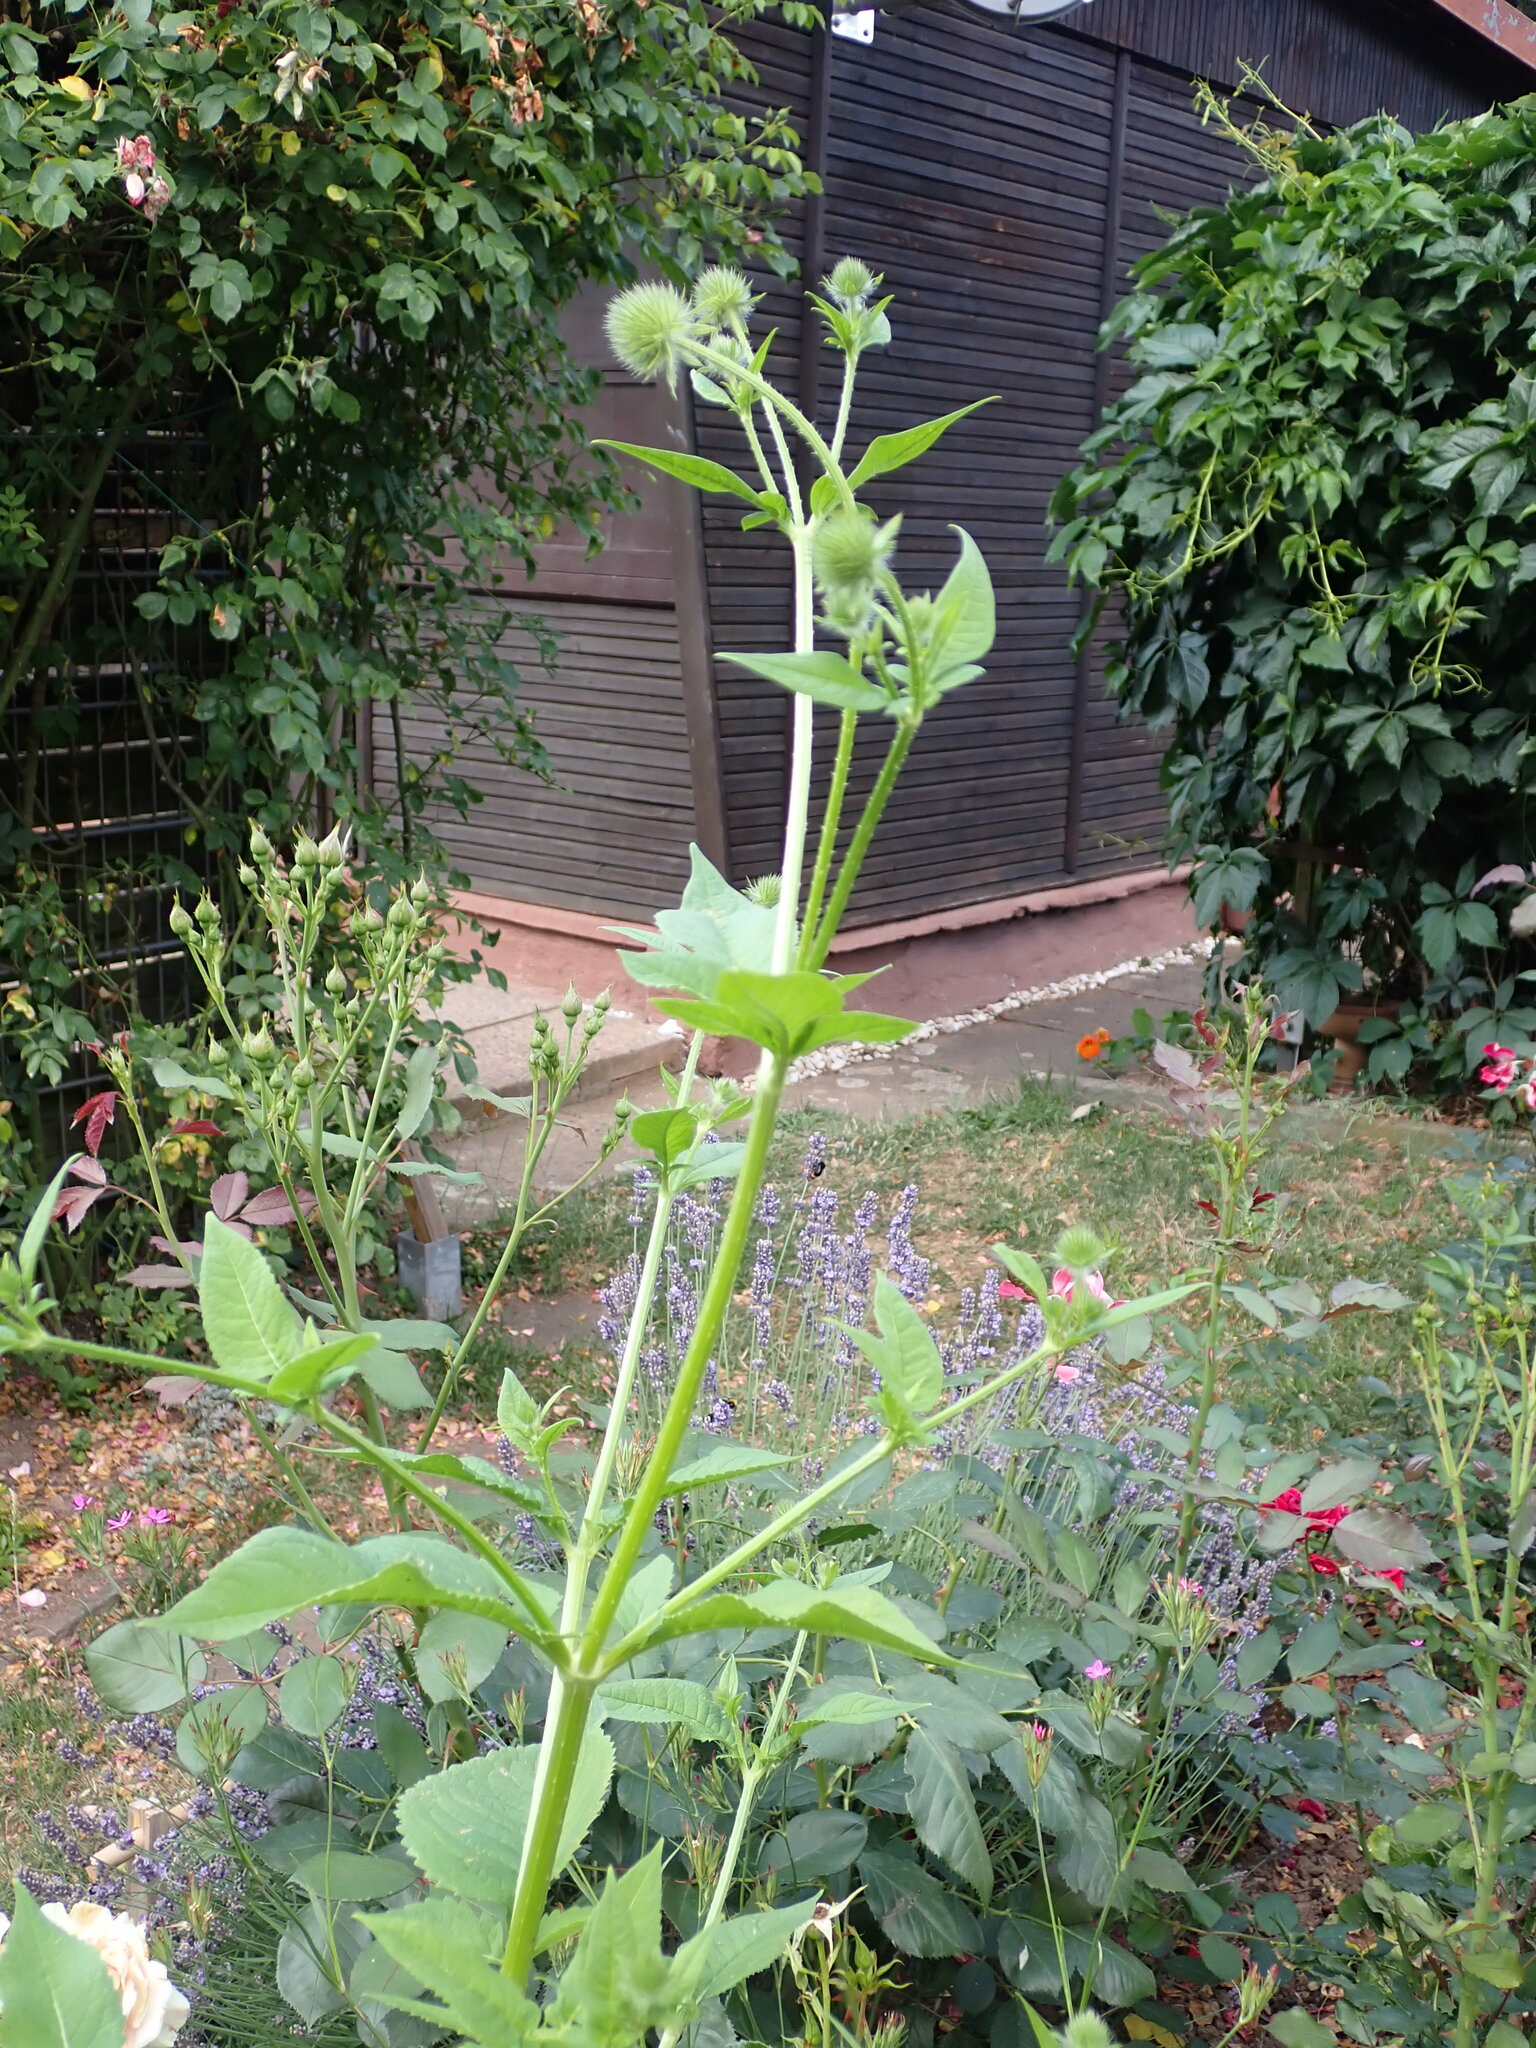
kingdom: Plantae
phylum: Tracheophyta
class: Magnoliopsida
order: Dipsacales
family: Caprifoliaceae
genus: Dipsacus
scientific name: Dipsacus pilosus
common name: Small teasel
